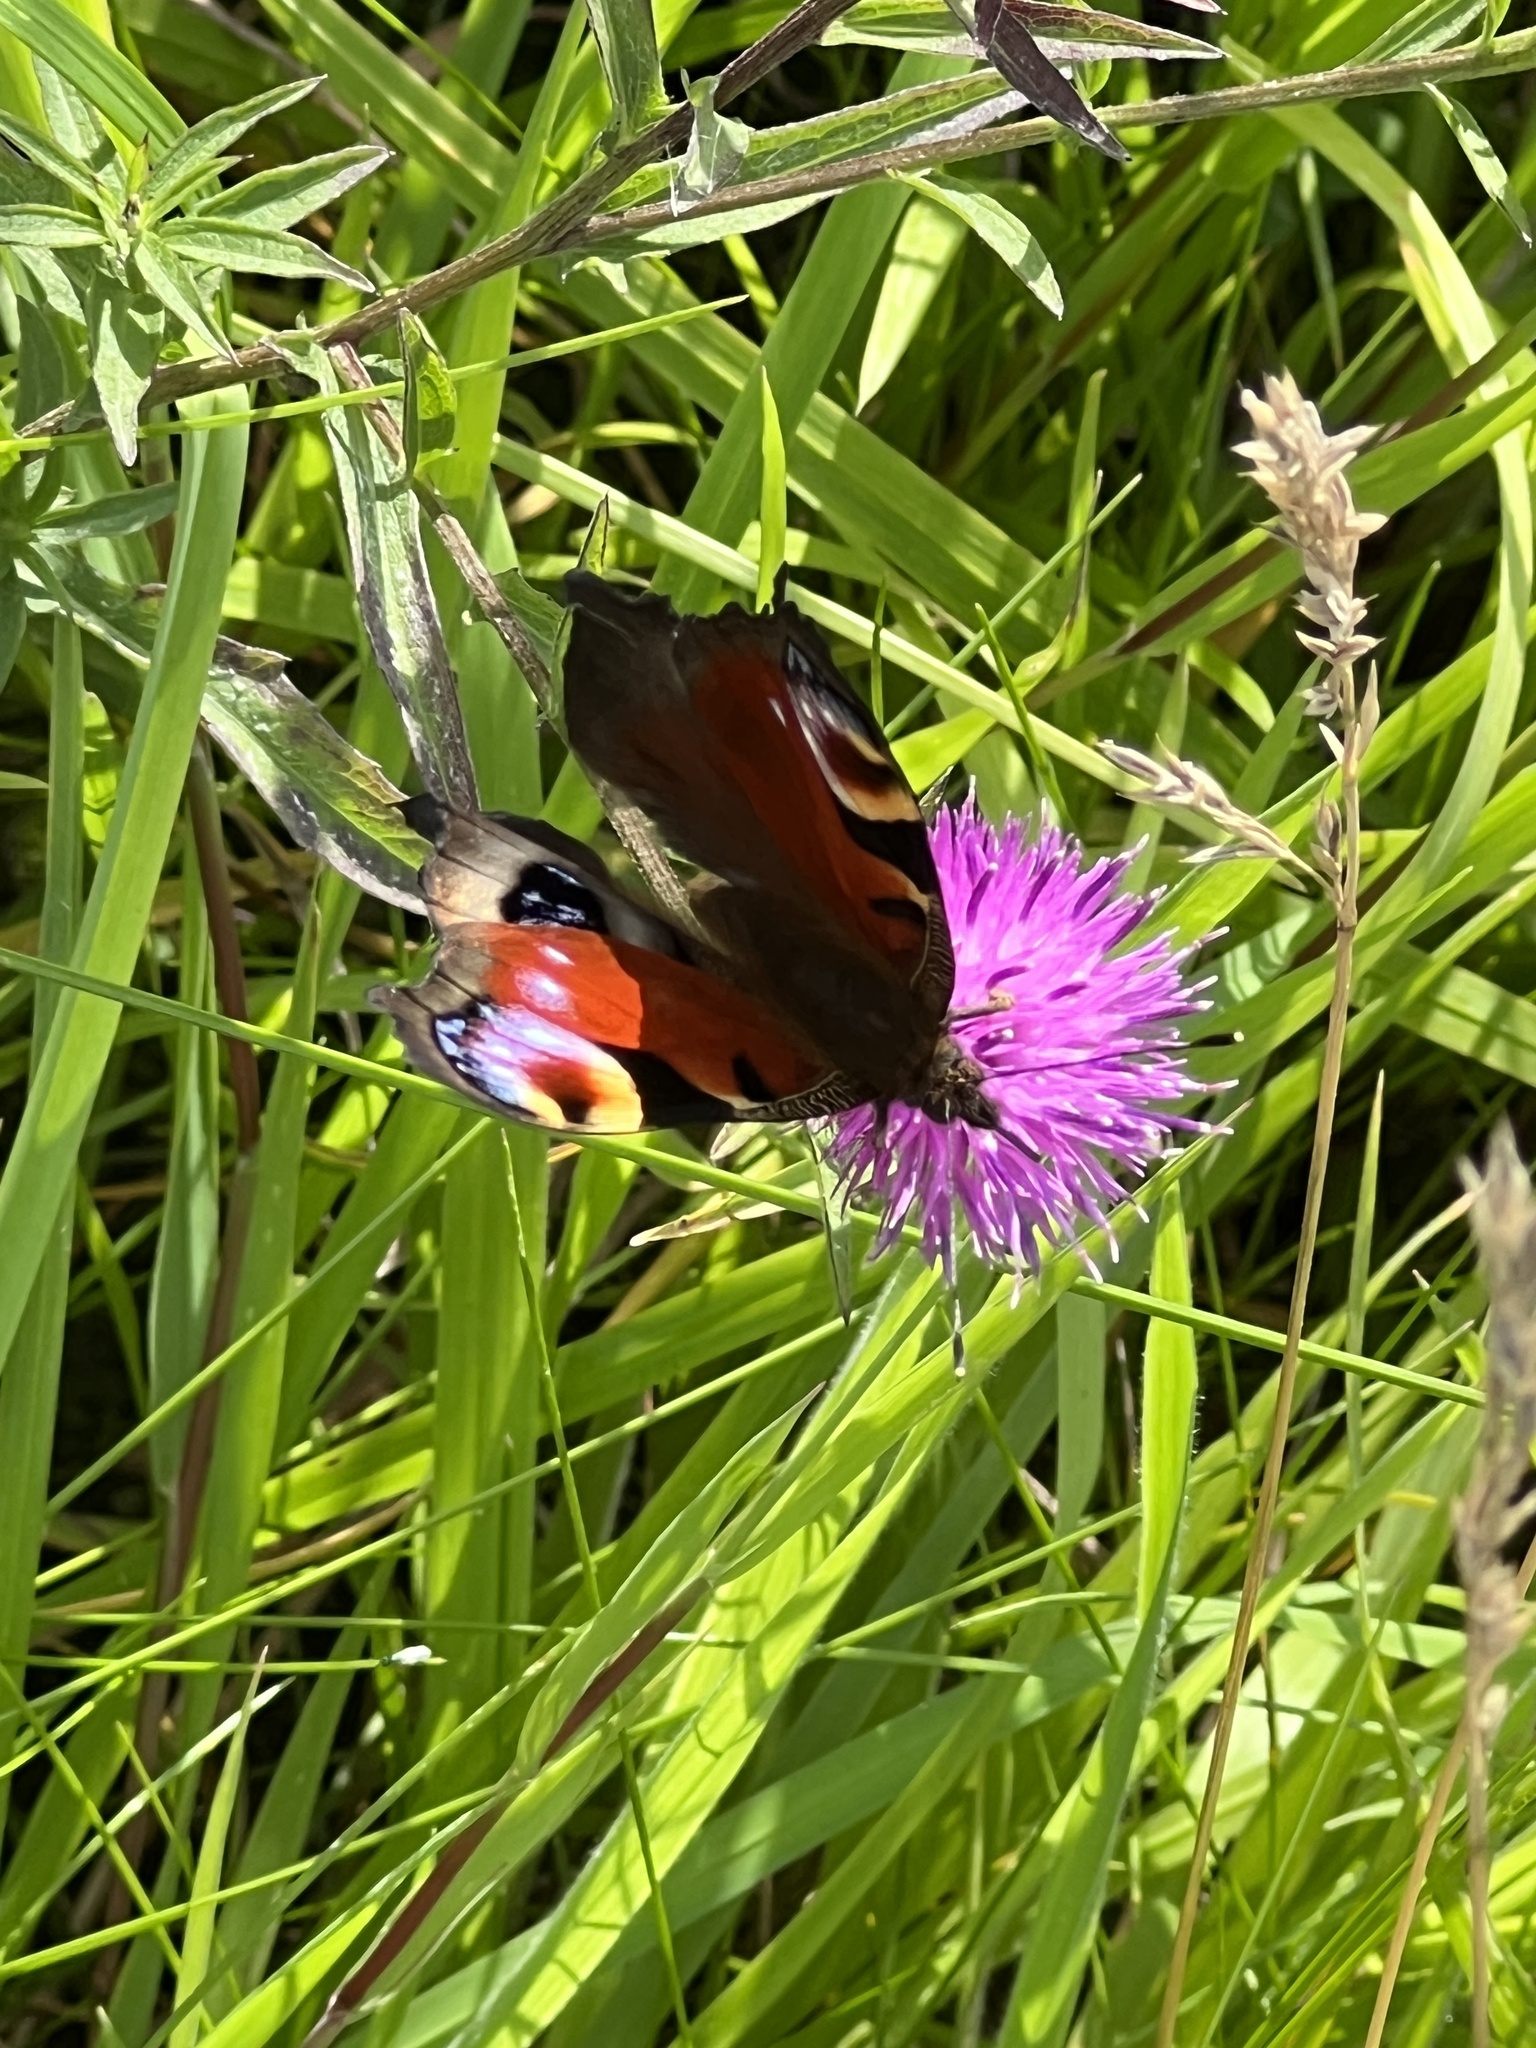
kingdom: Animalia
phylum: Arthropoda
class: Insecta
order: Lepidoptera
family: Nymphalidae
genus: Aglais
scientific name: Aglais io
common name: Peacock
